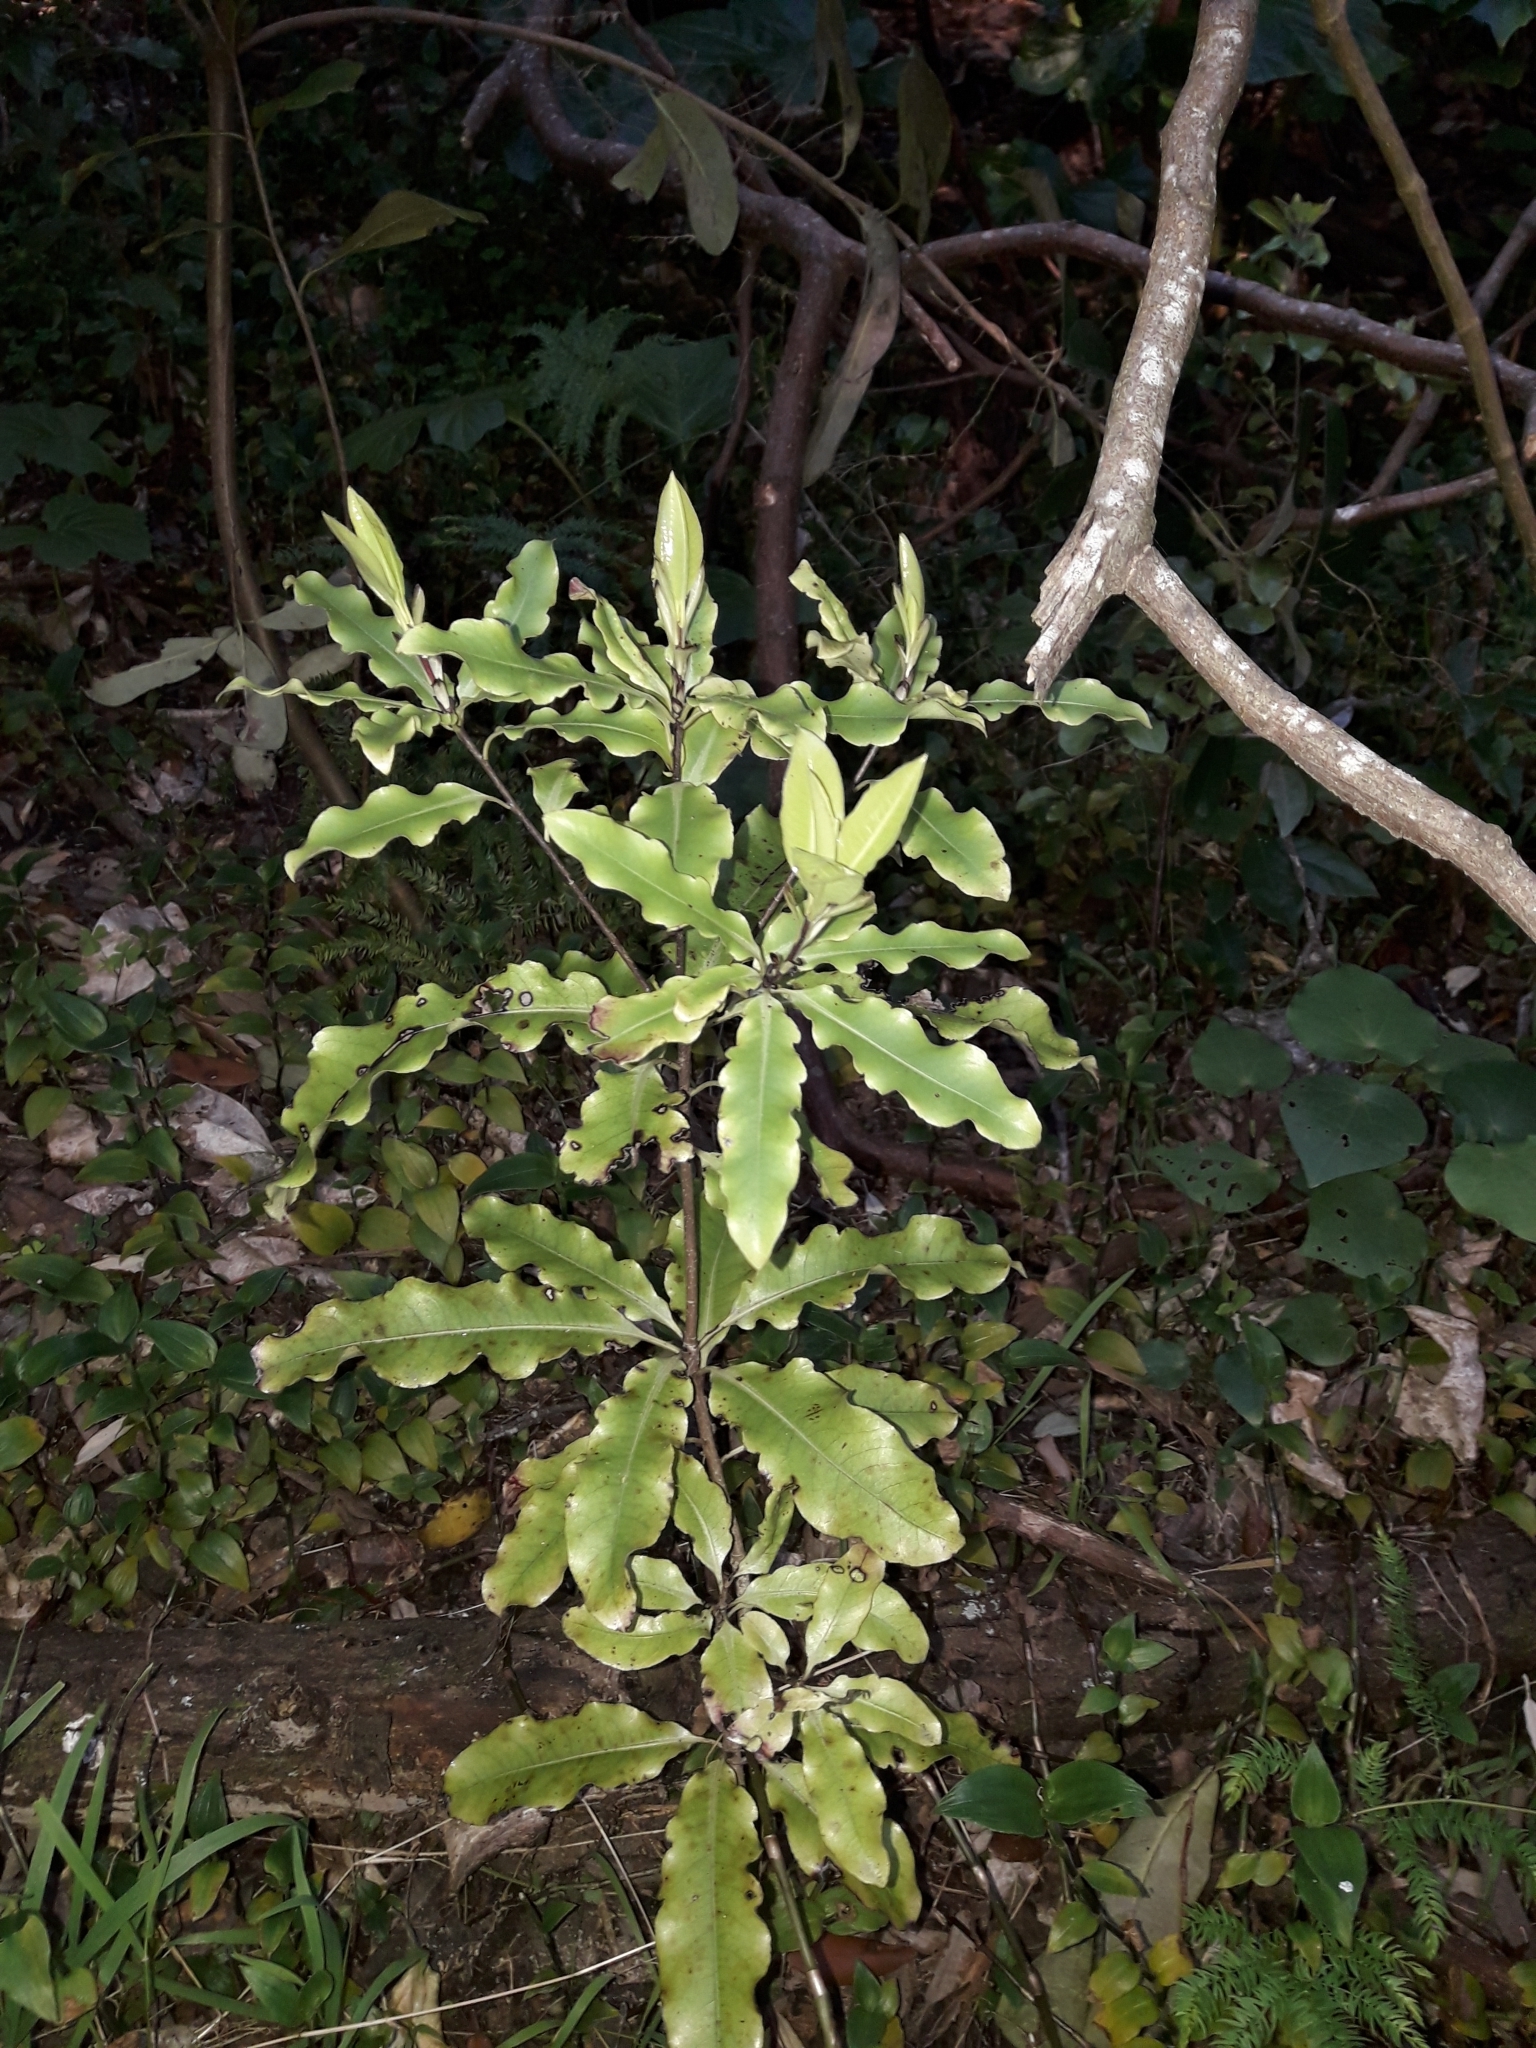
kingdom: Plantae
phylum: Tracheophyta
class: Magnoliopsida
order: Apiales
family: Pittosporaceae
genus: Pittosporum
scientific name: Pittosporum eugenioides
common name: Lemonwood
